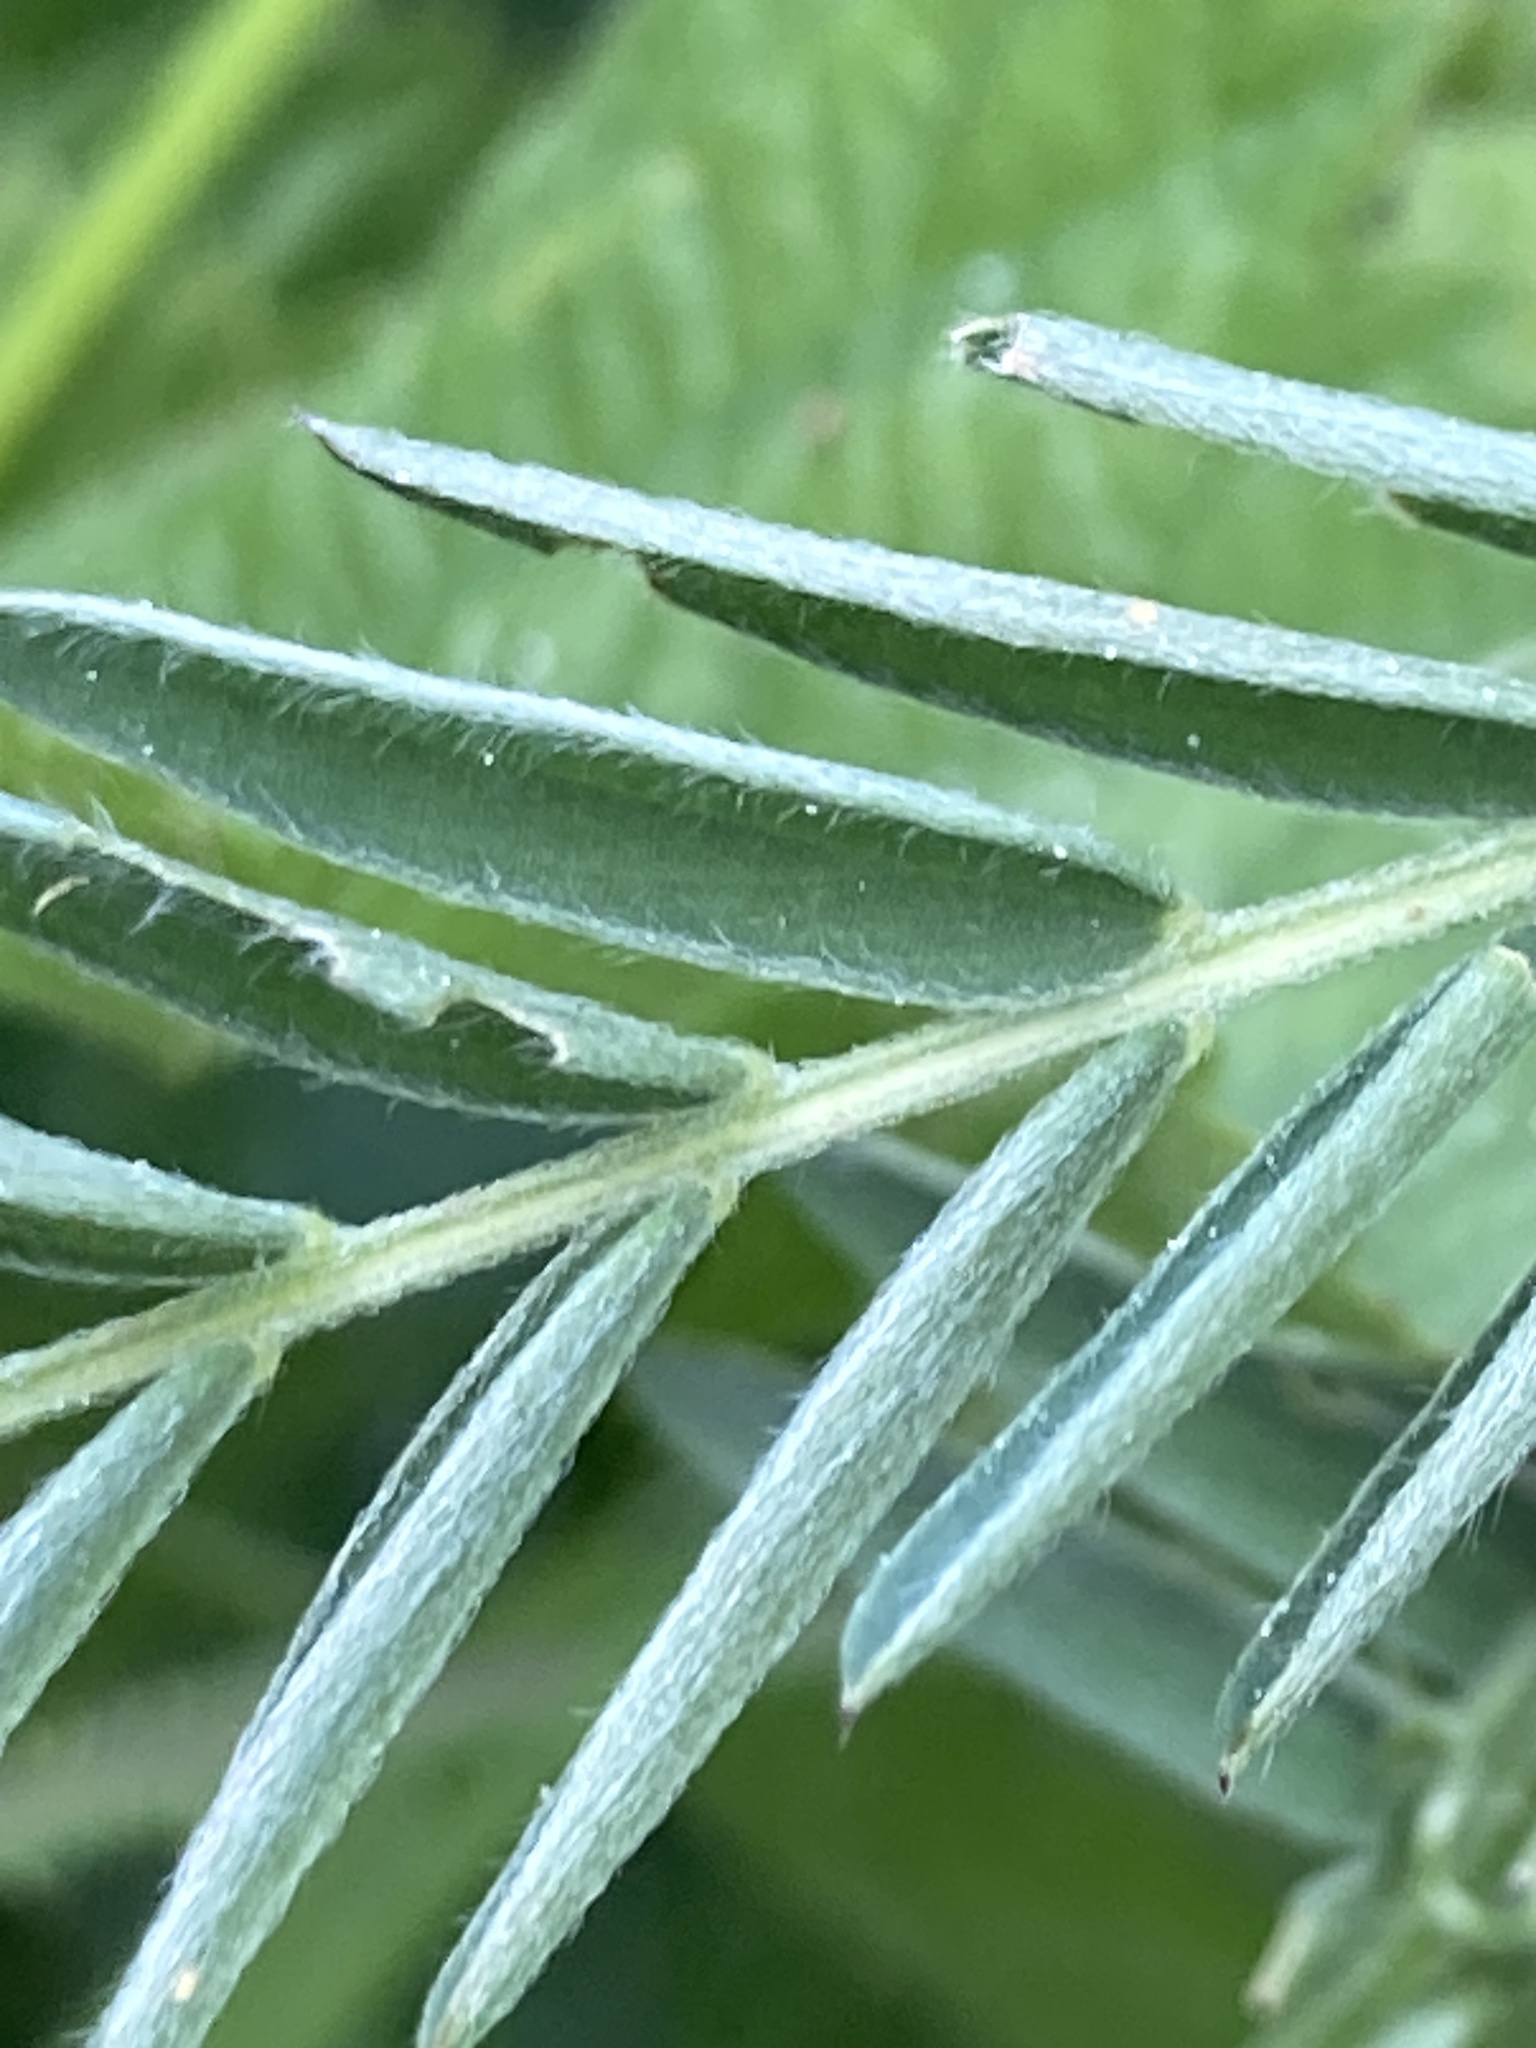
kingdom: Plantae
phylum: Tracheophyta
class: Magnoliopsida
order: Fabales
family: Fabaceae
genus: Vicia
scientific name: Vicia cracca
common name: Bird vetch
